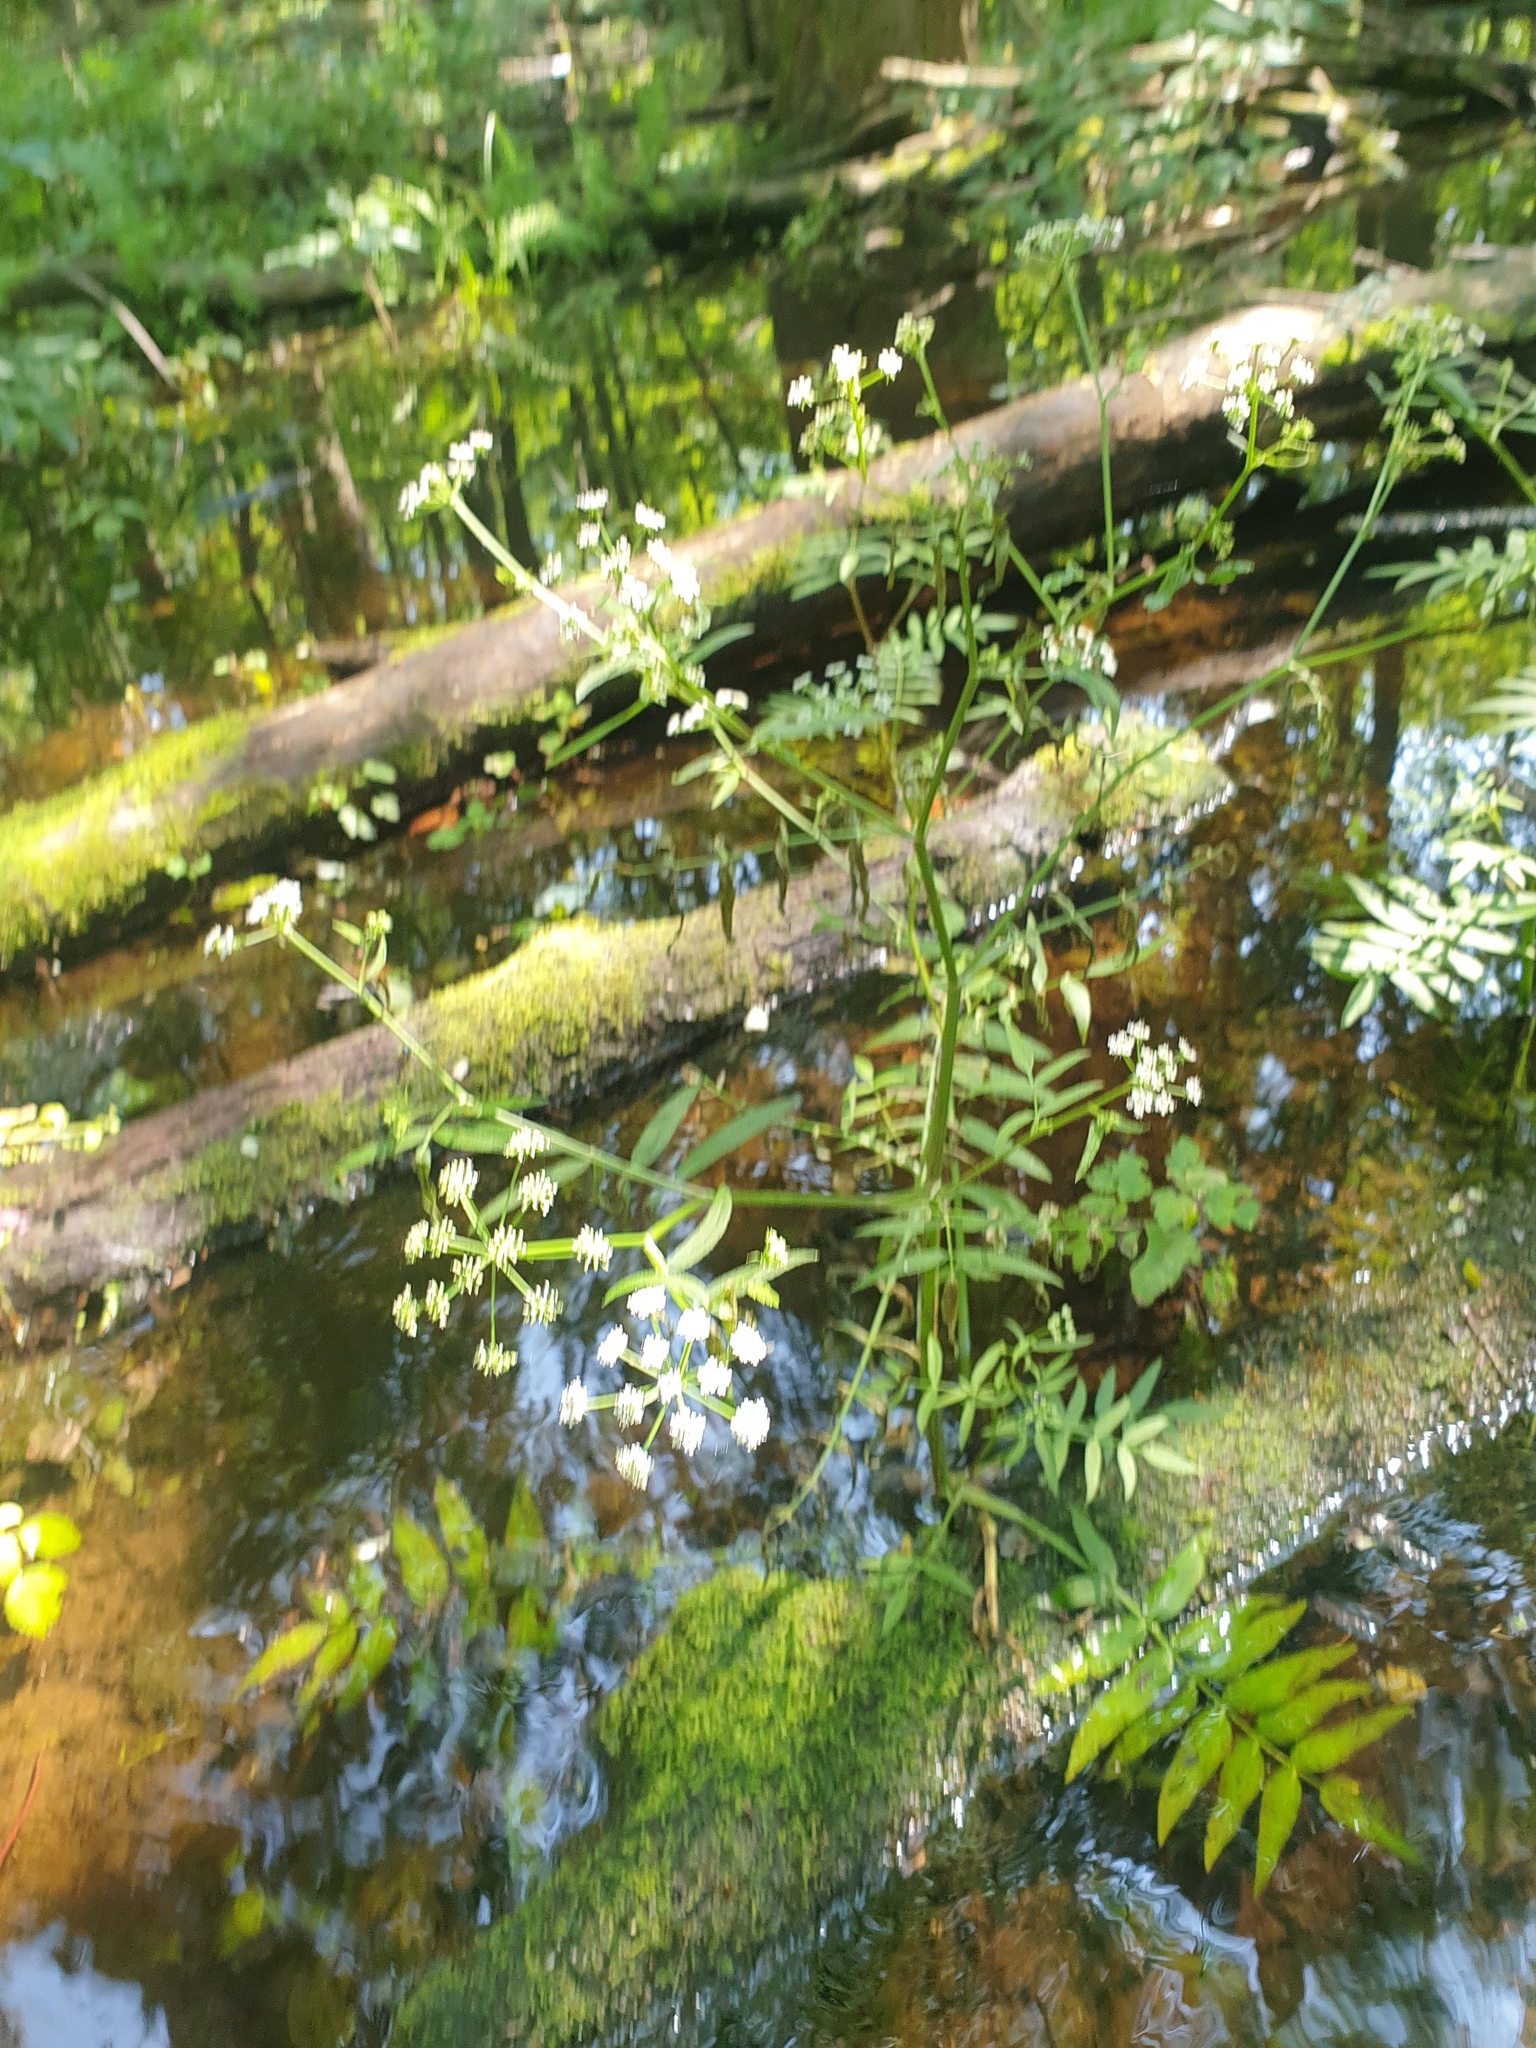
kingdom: Plantae
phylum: Tracheophyta
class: Magnoliopsida
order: Apiales
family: Apiaceae
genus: Sium
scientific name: Sium suave
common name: Hemlock water-parsnip
